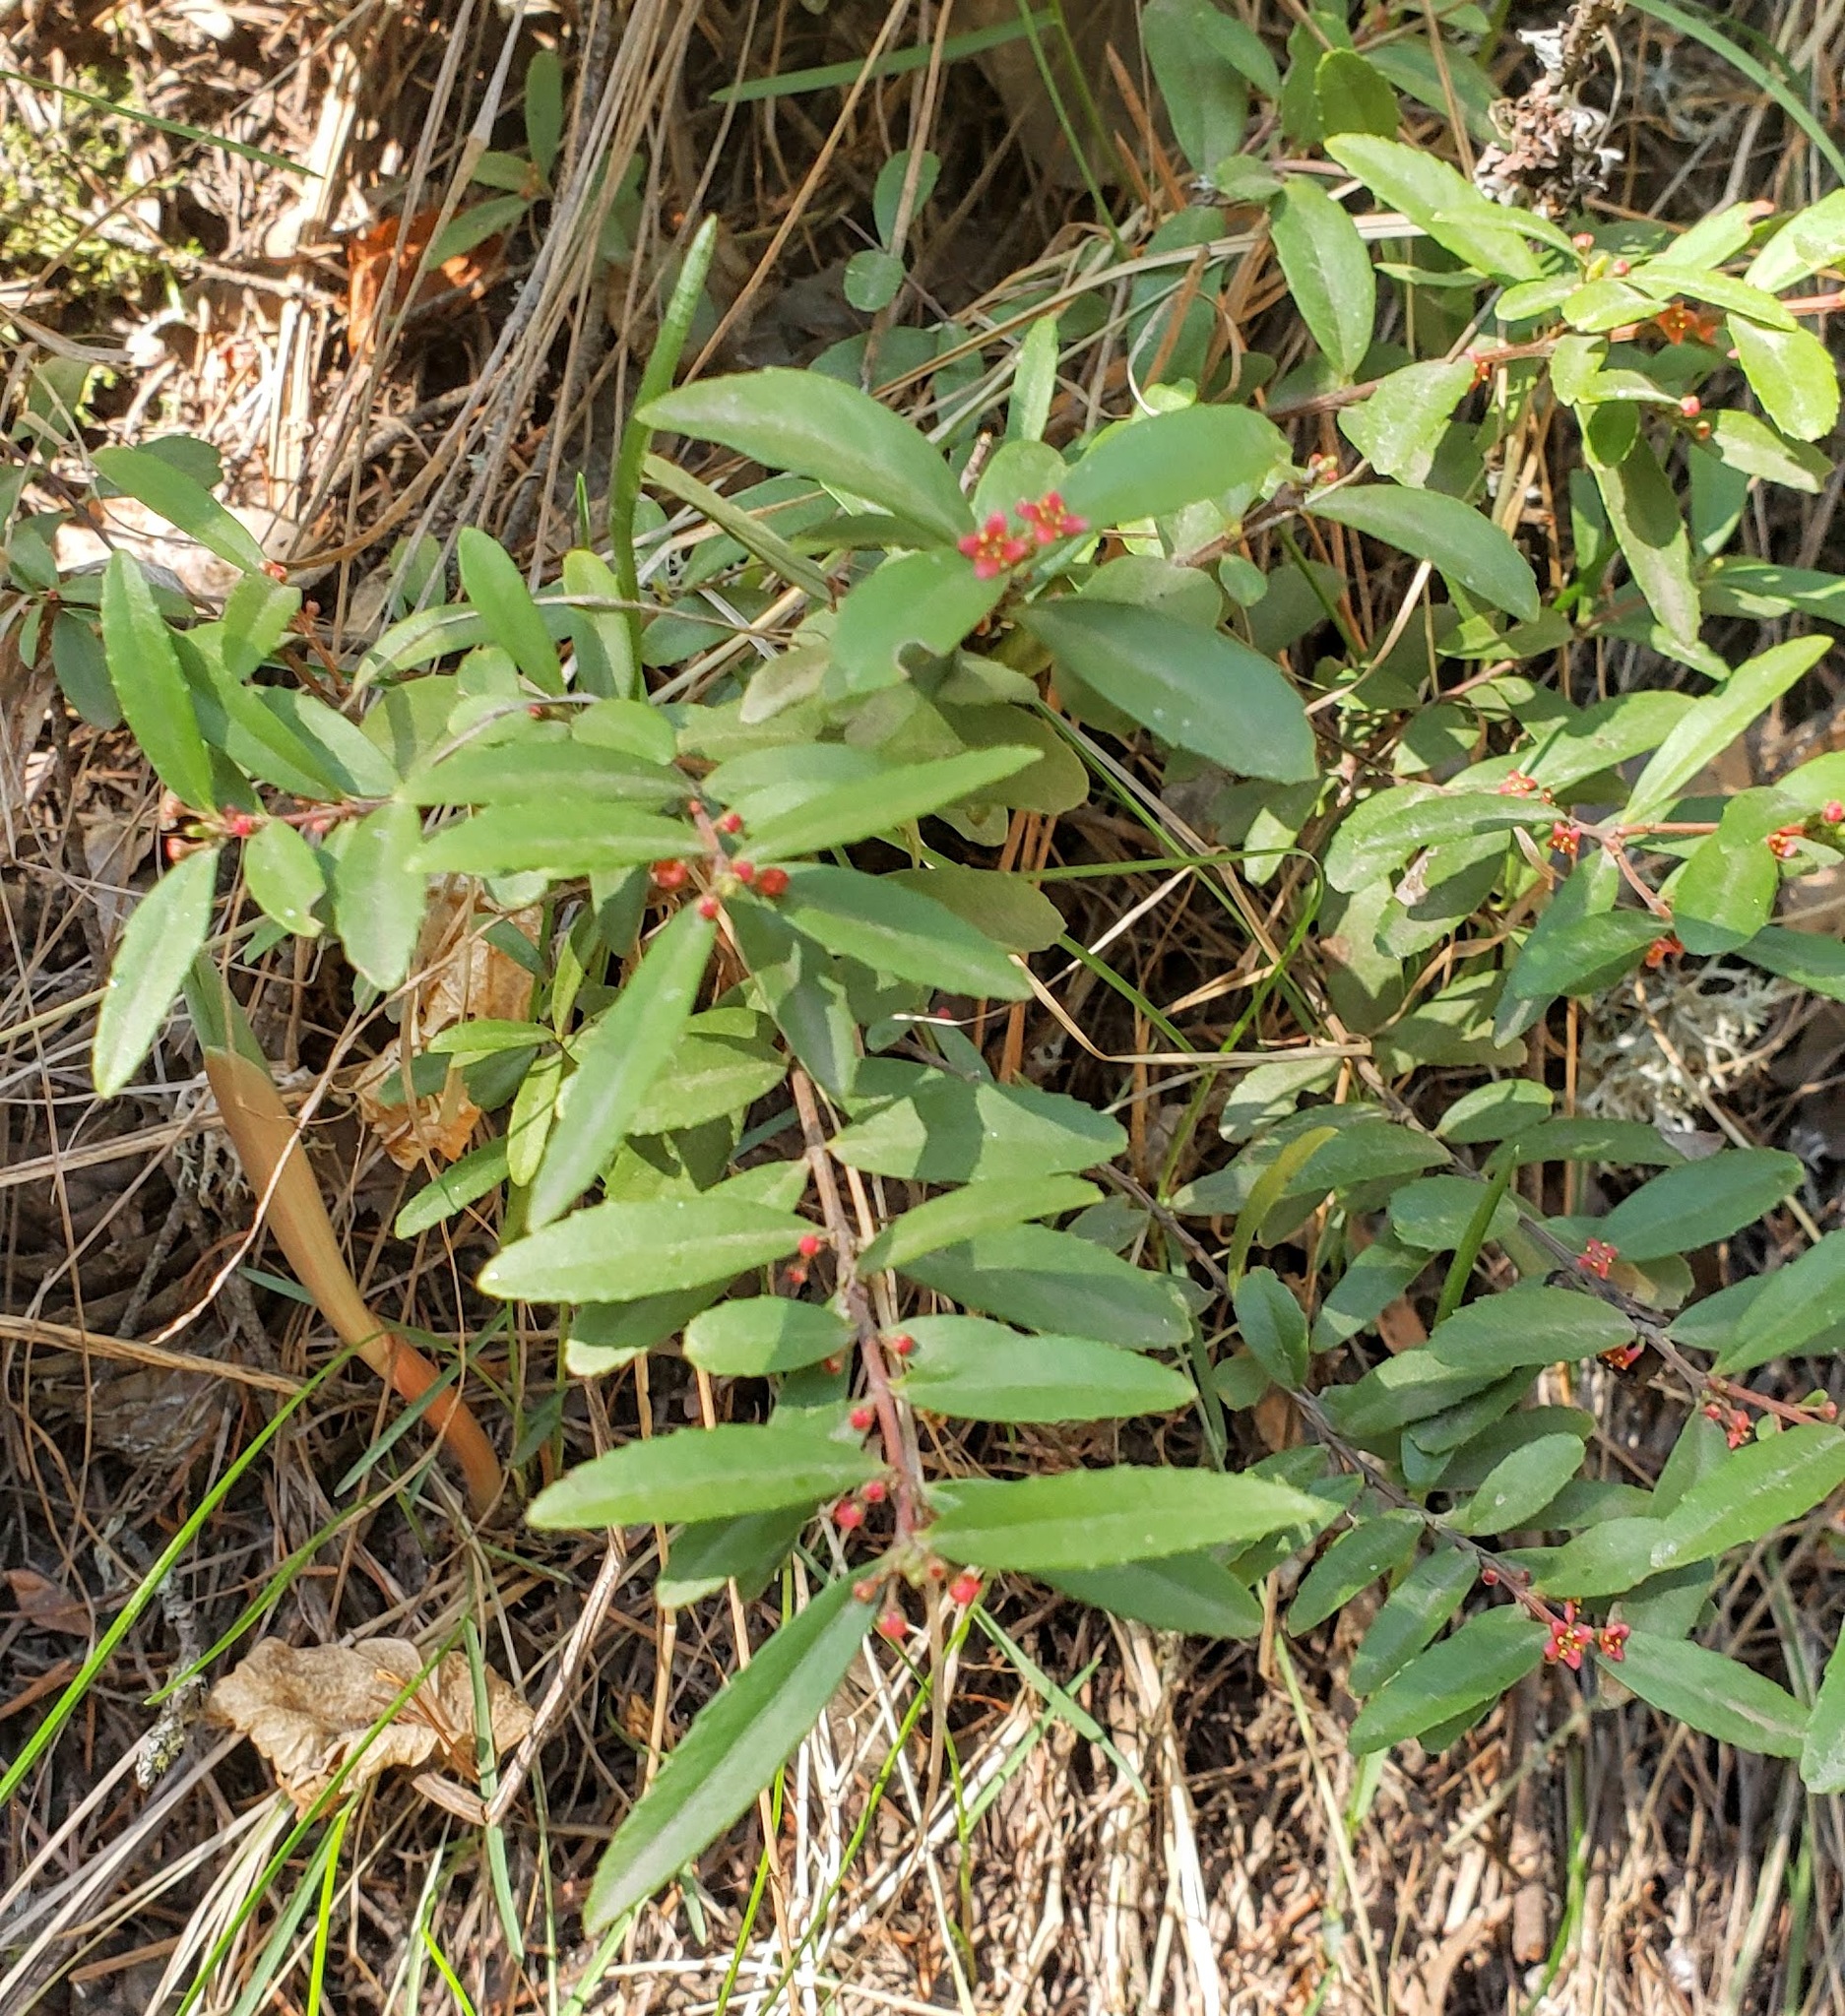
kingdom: Plantae
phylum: Tracheophyta
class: Magnoliopsida
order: Celastrales
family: Celastraceae
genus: Paxistima
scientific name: Paxistima myrsinites
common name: Mountain-lover
